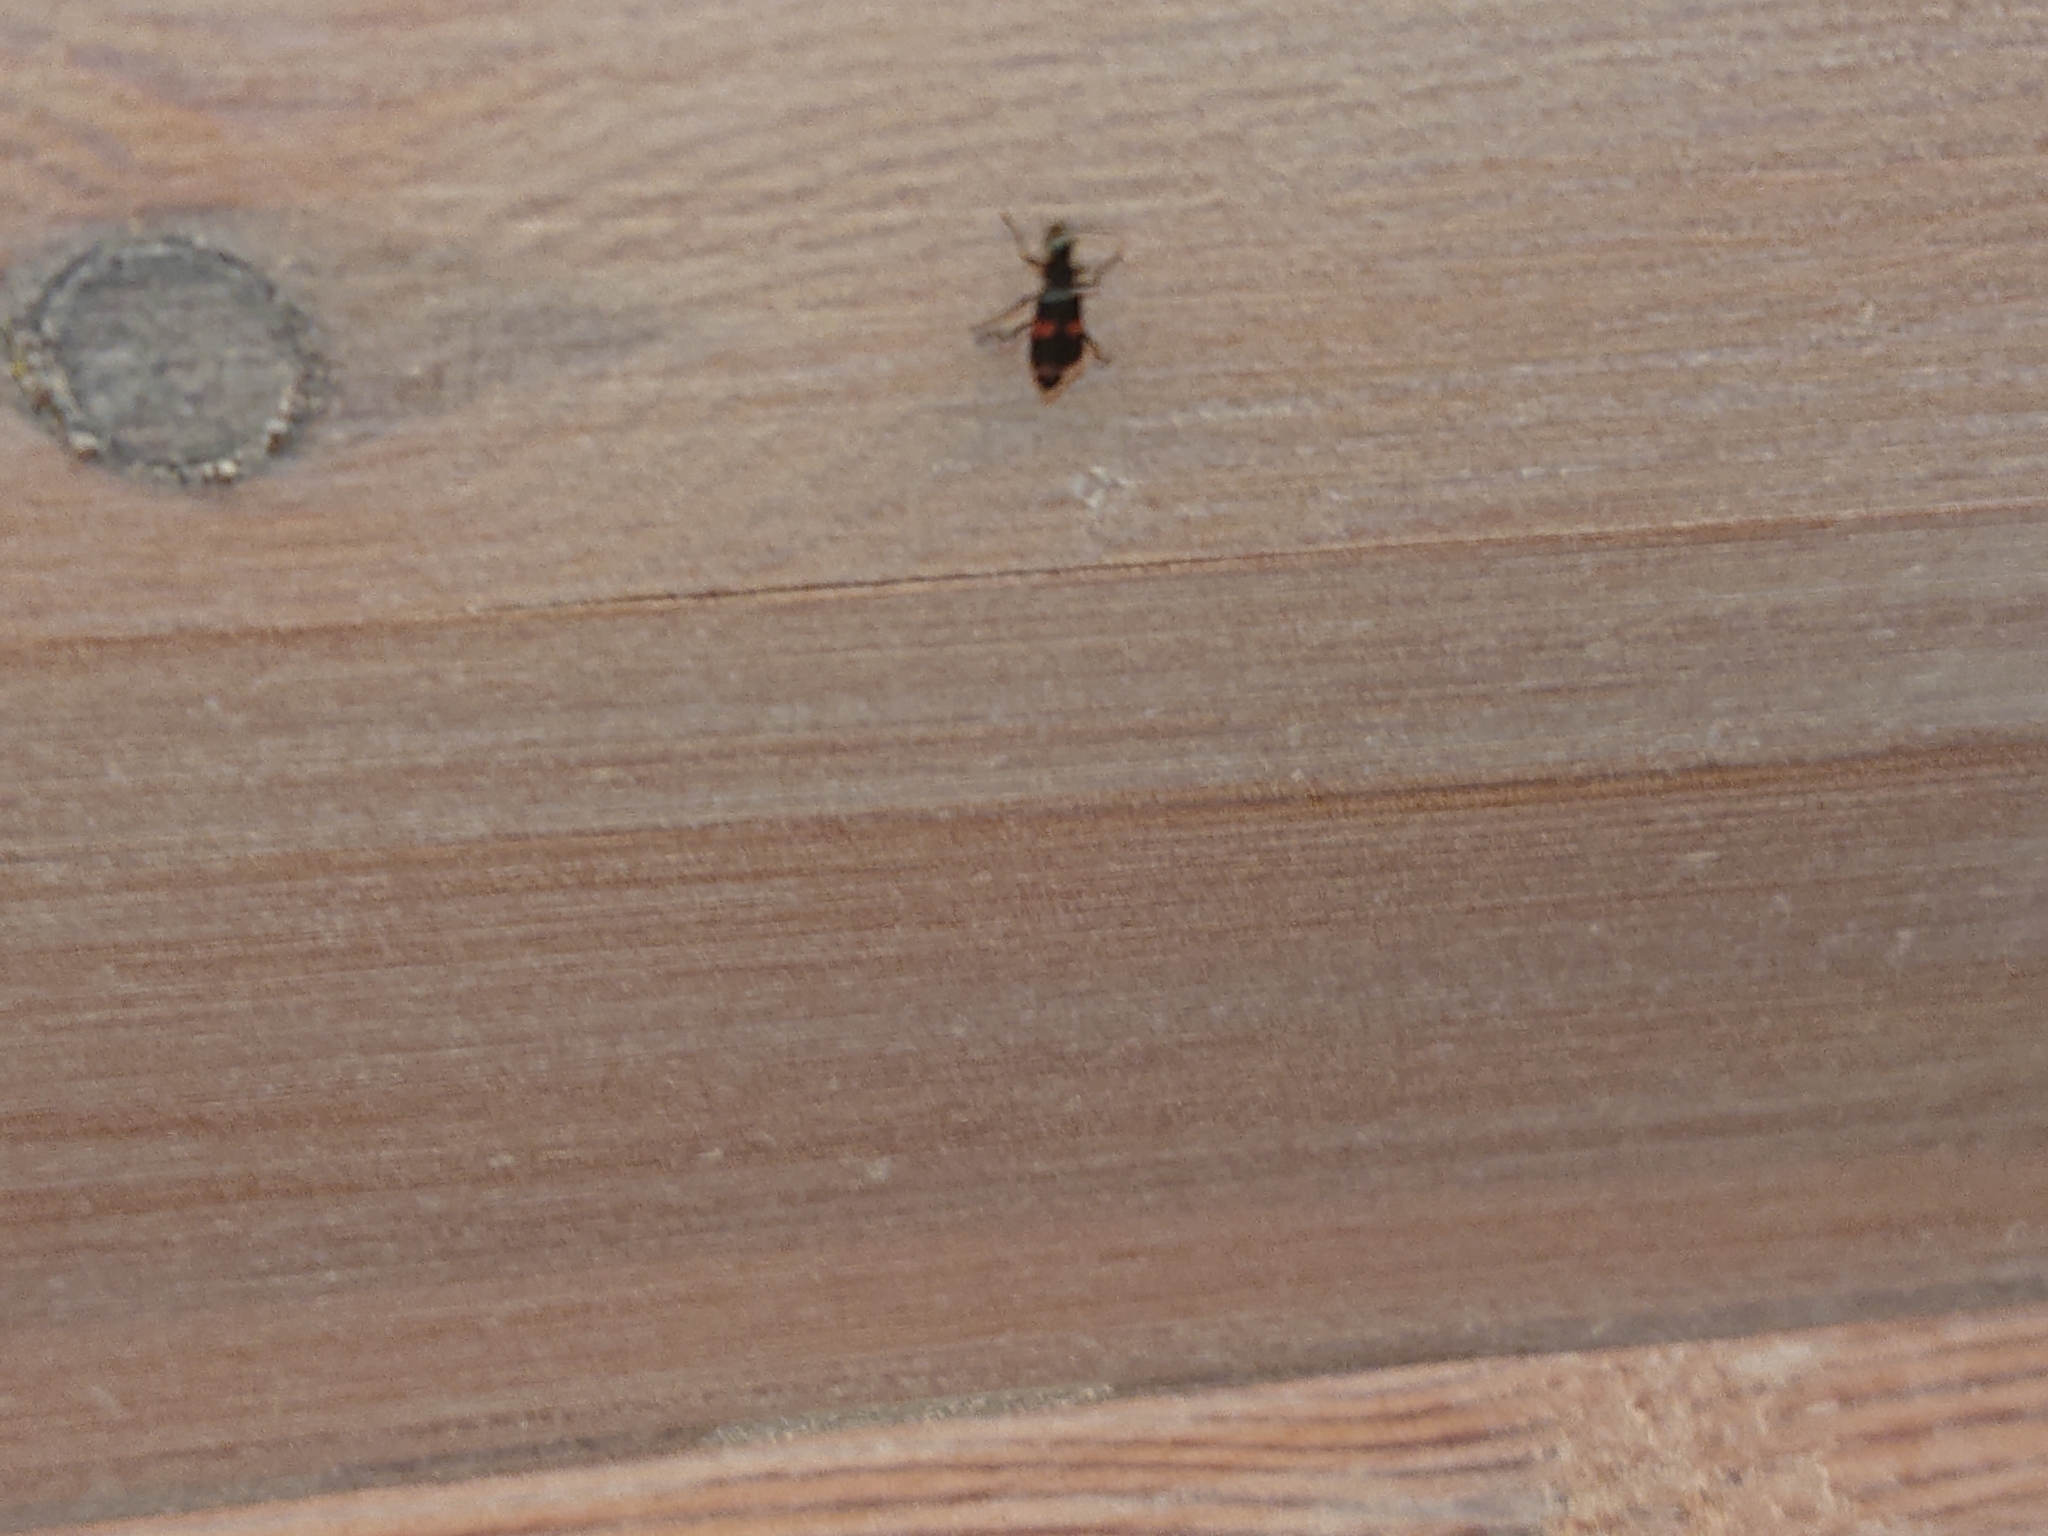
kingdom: Animalia
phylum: Arthropoda
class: Insecta
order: Coleoptera
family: Melyridae
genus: Anthocomus
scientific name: Anthocomus fasciatus
